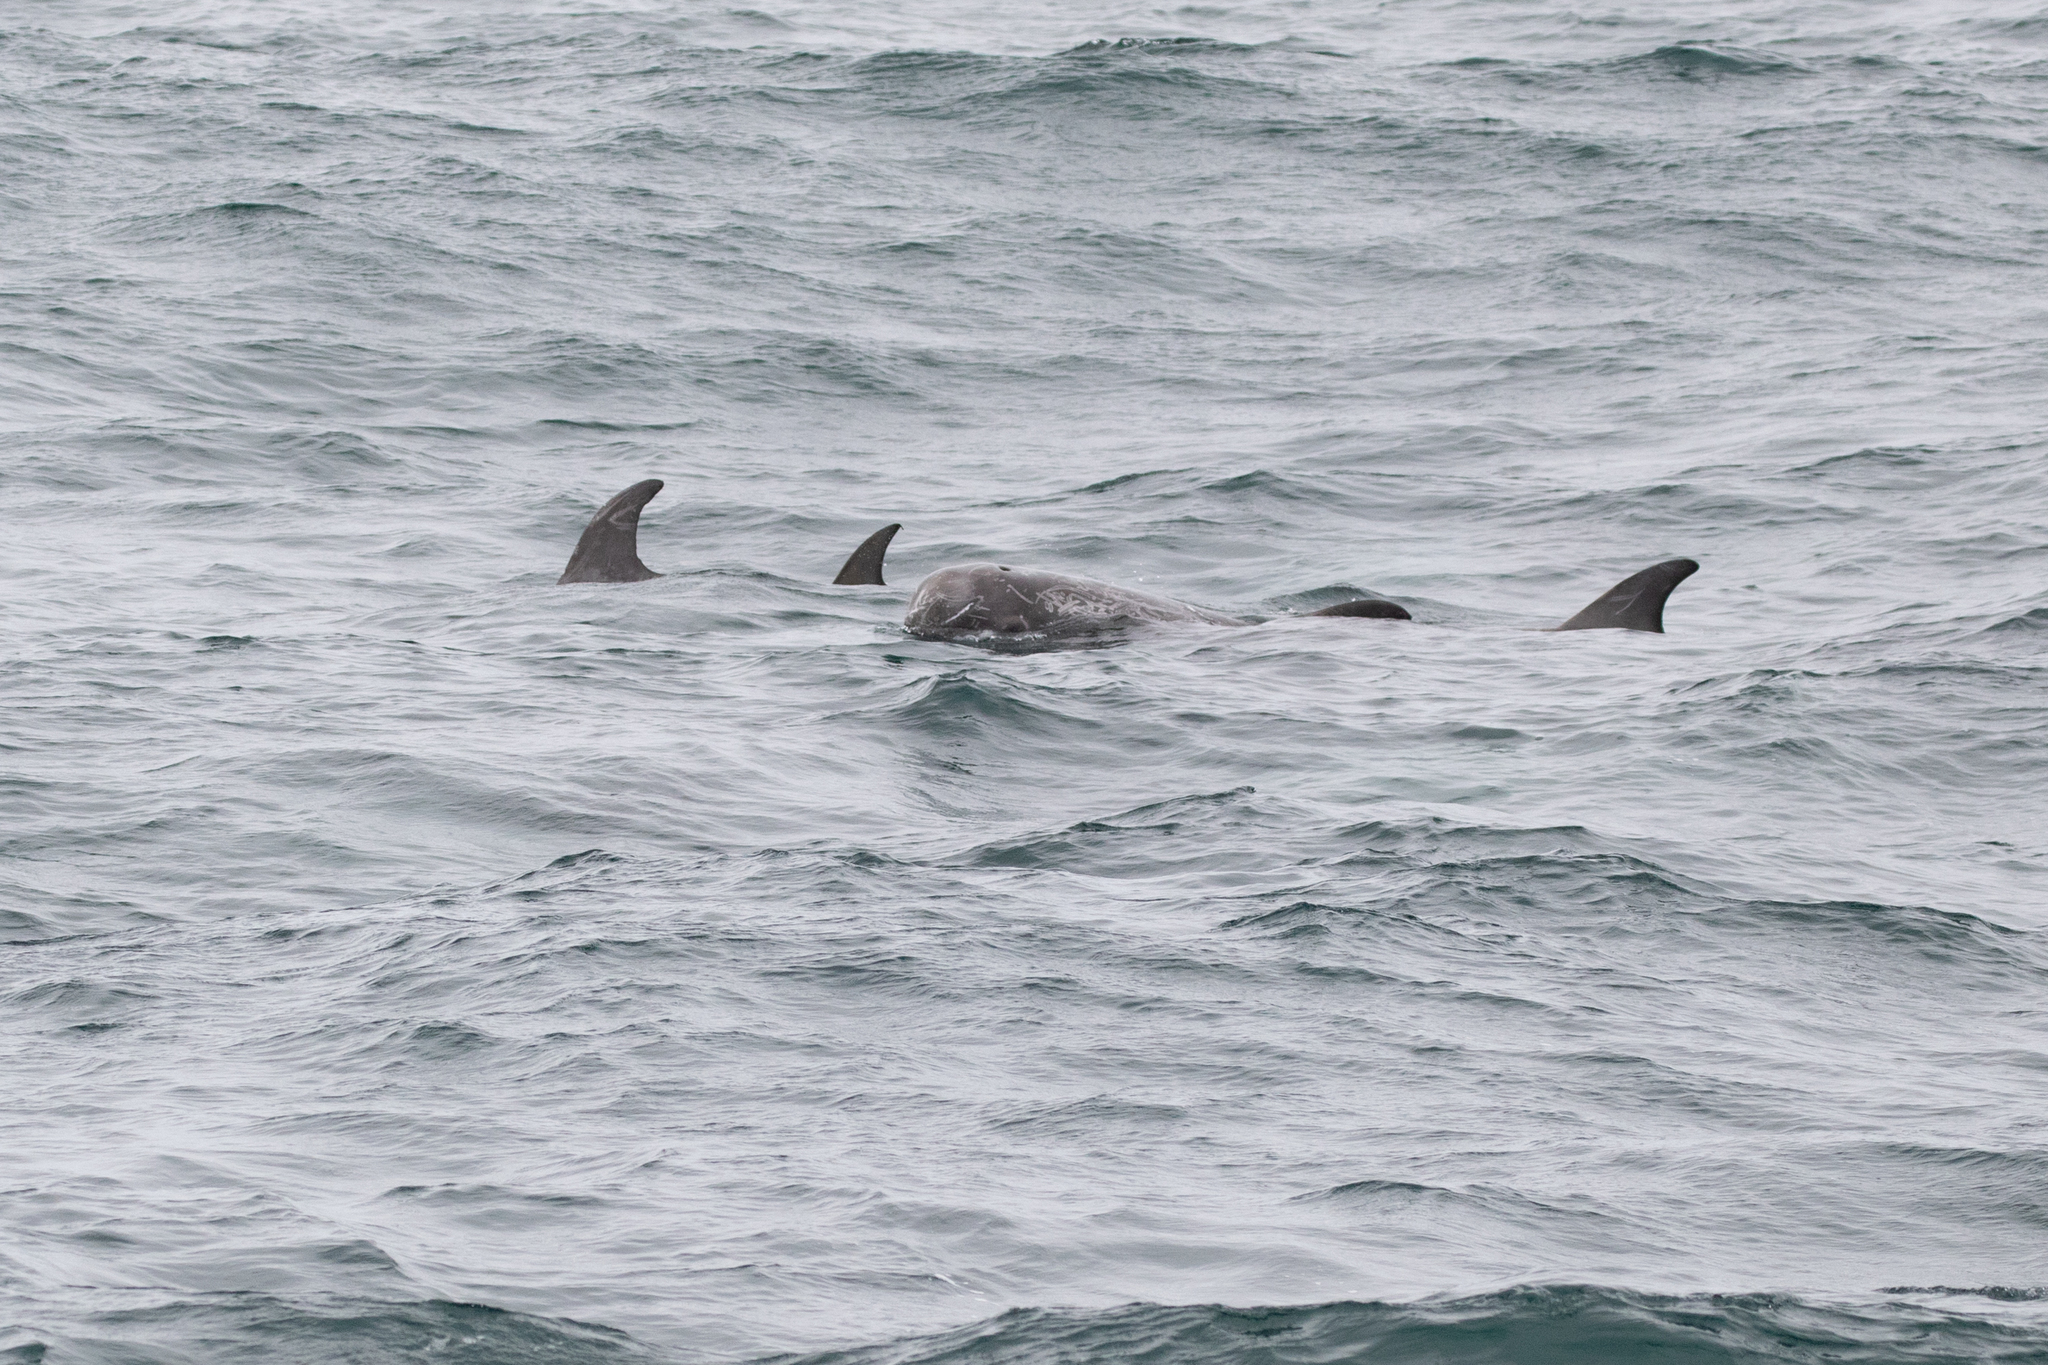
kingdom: Animalia
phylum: Chordata
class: Mammalia
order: Cetacea
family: Delphinidae
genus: Grampus
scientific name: Grampus griseus
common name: Risso's dolphin
